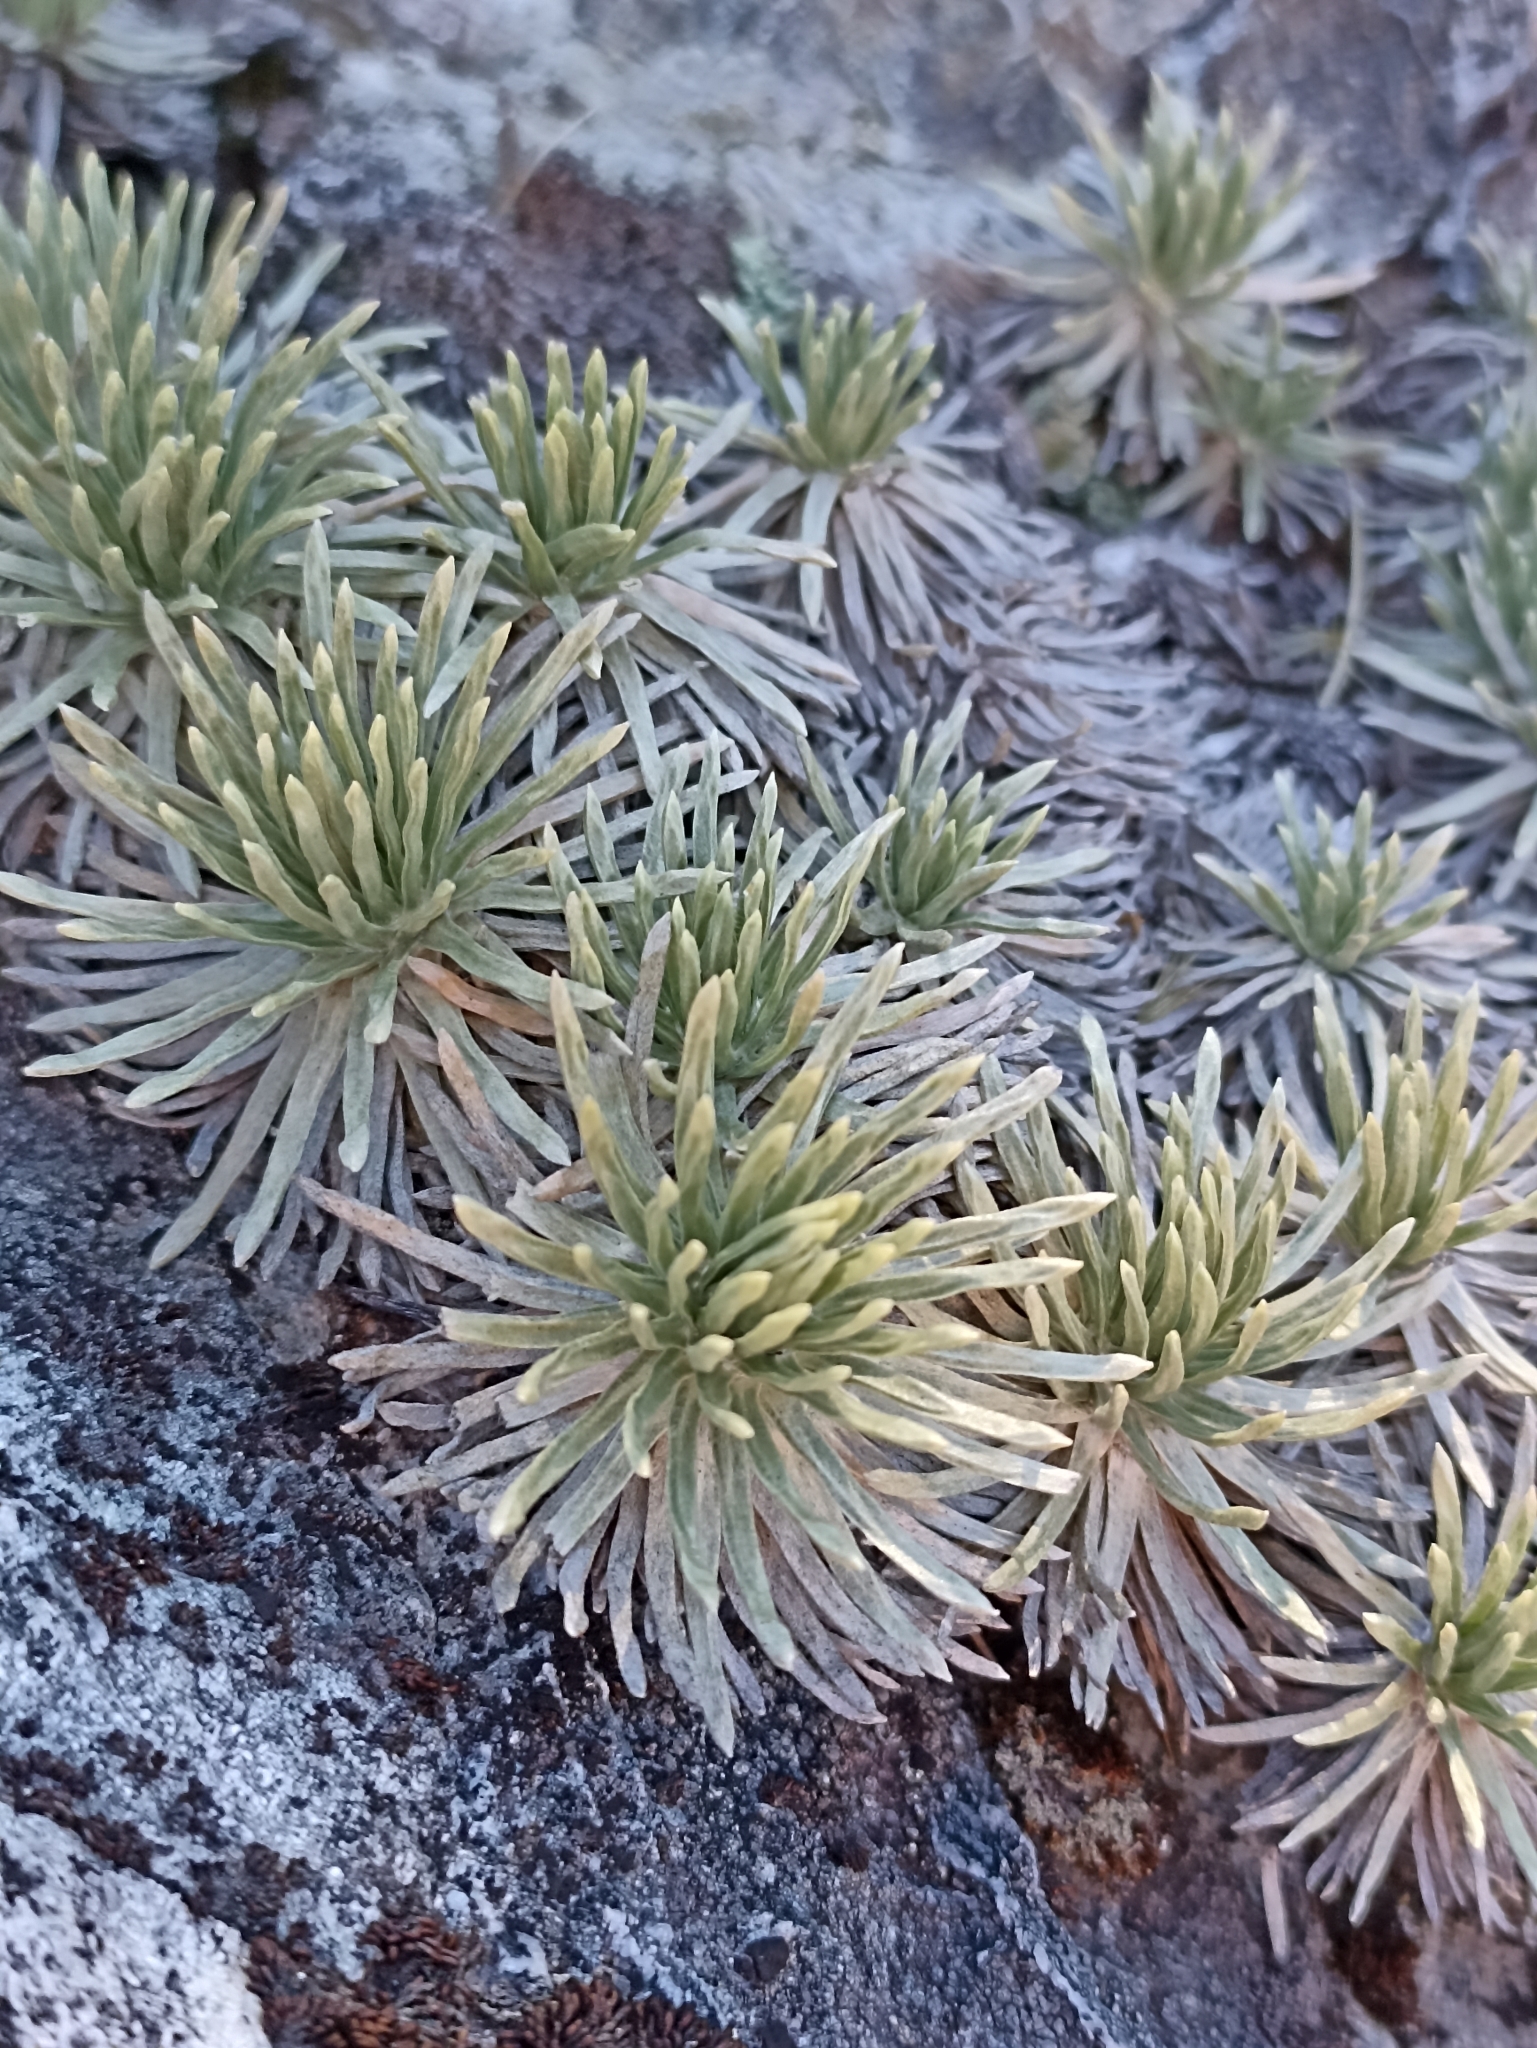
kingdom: Plantae
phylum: Tracheophyta
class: Magnoliopsida
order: Asterales
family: Asteraceae
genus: Celmisia
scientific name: Celmisia sessiliflora
